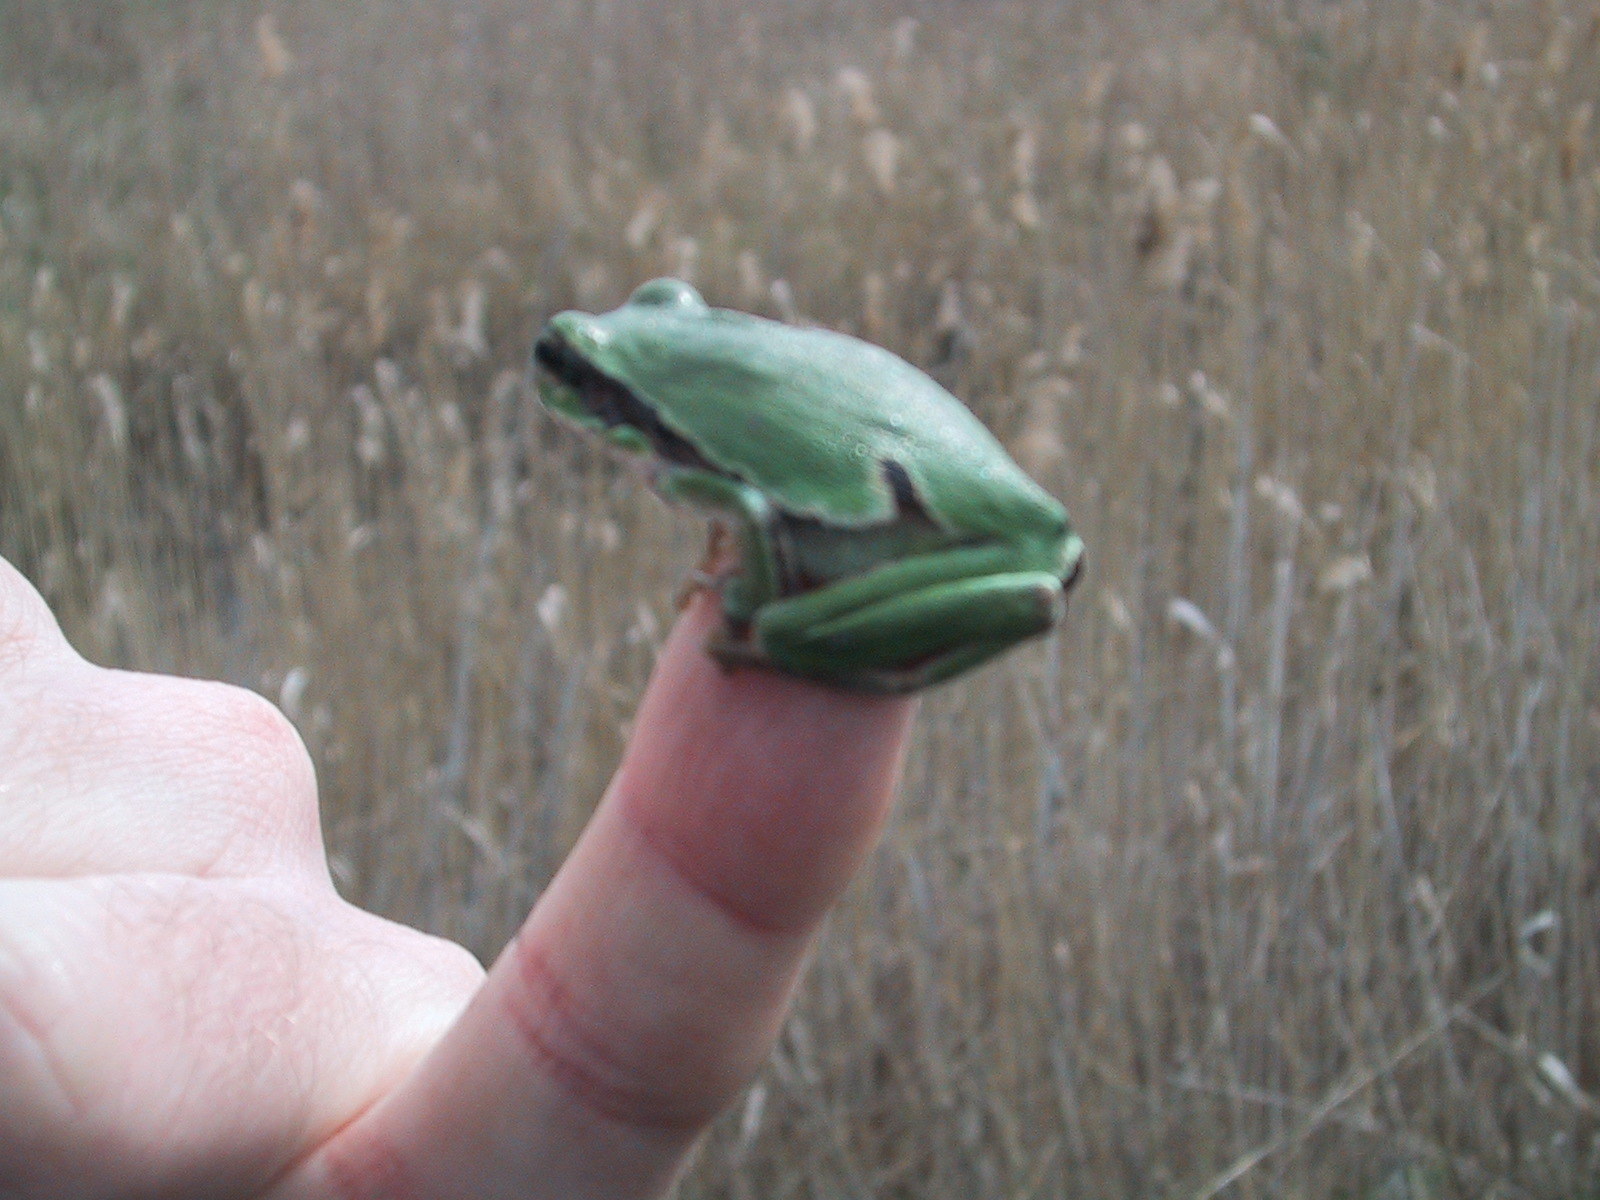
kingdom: Animalia
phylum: Chordata
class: Amphibia
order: Anura
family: Hylidae
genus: Hyla
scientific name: Hyla arborea
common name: Common tree frog
